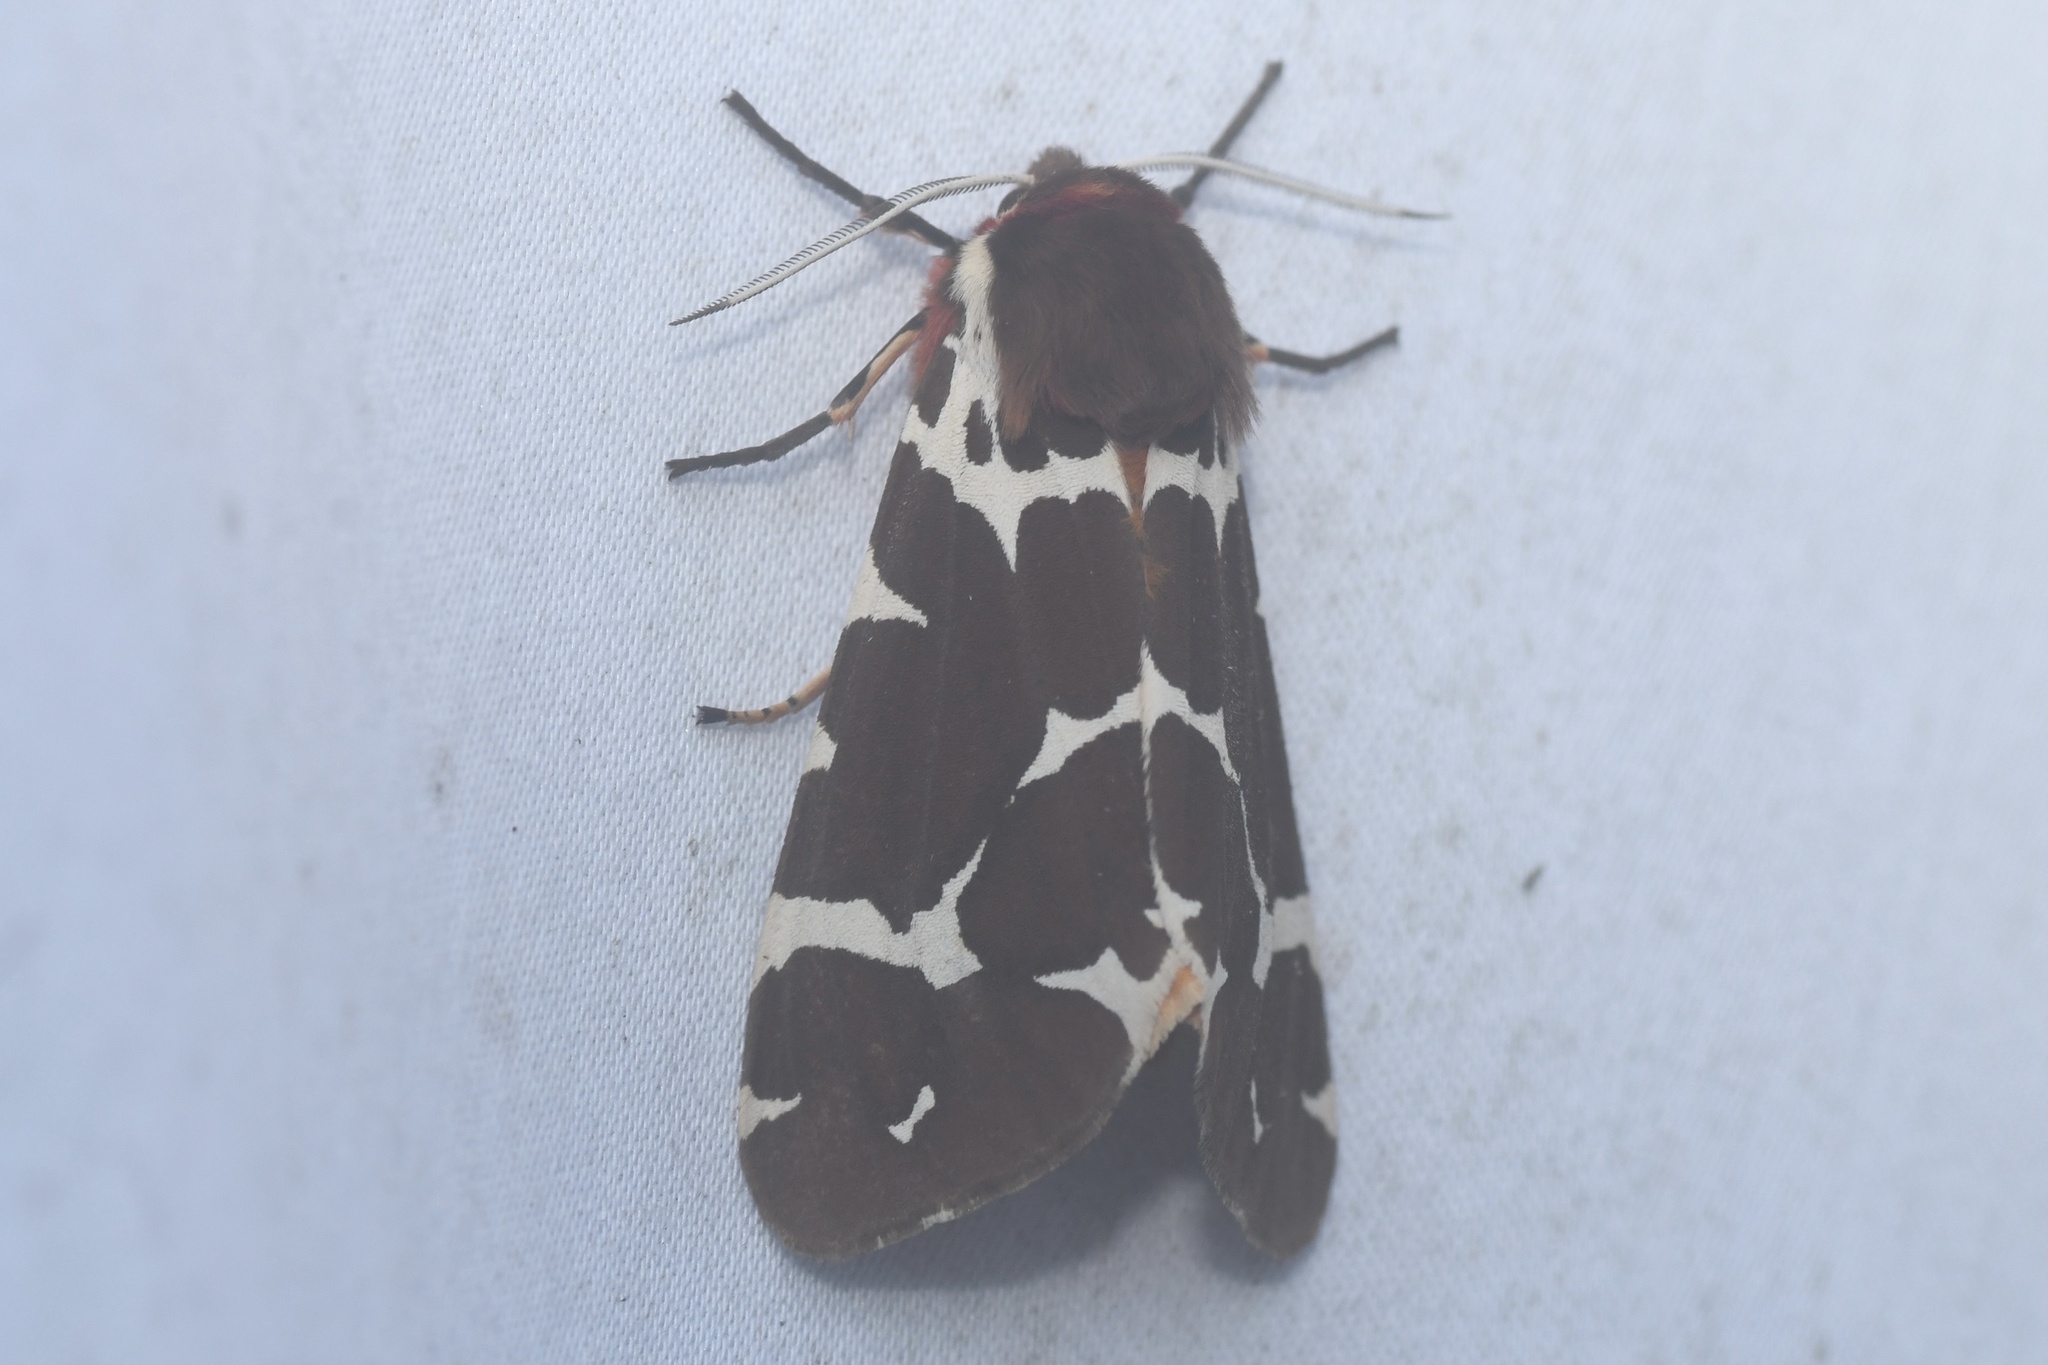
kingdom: Animalia
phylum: Arthropoda
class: Insecta
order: Lepidoptera
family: Erebidae
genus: Arctia
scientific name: Arctia caja
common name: Garden tiger
